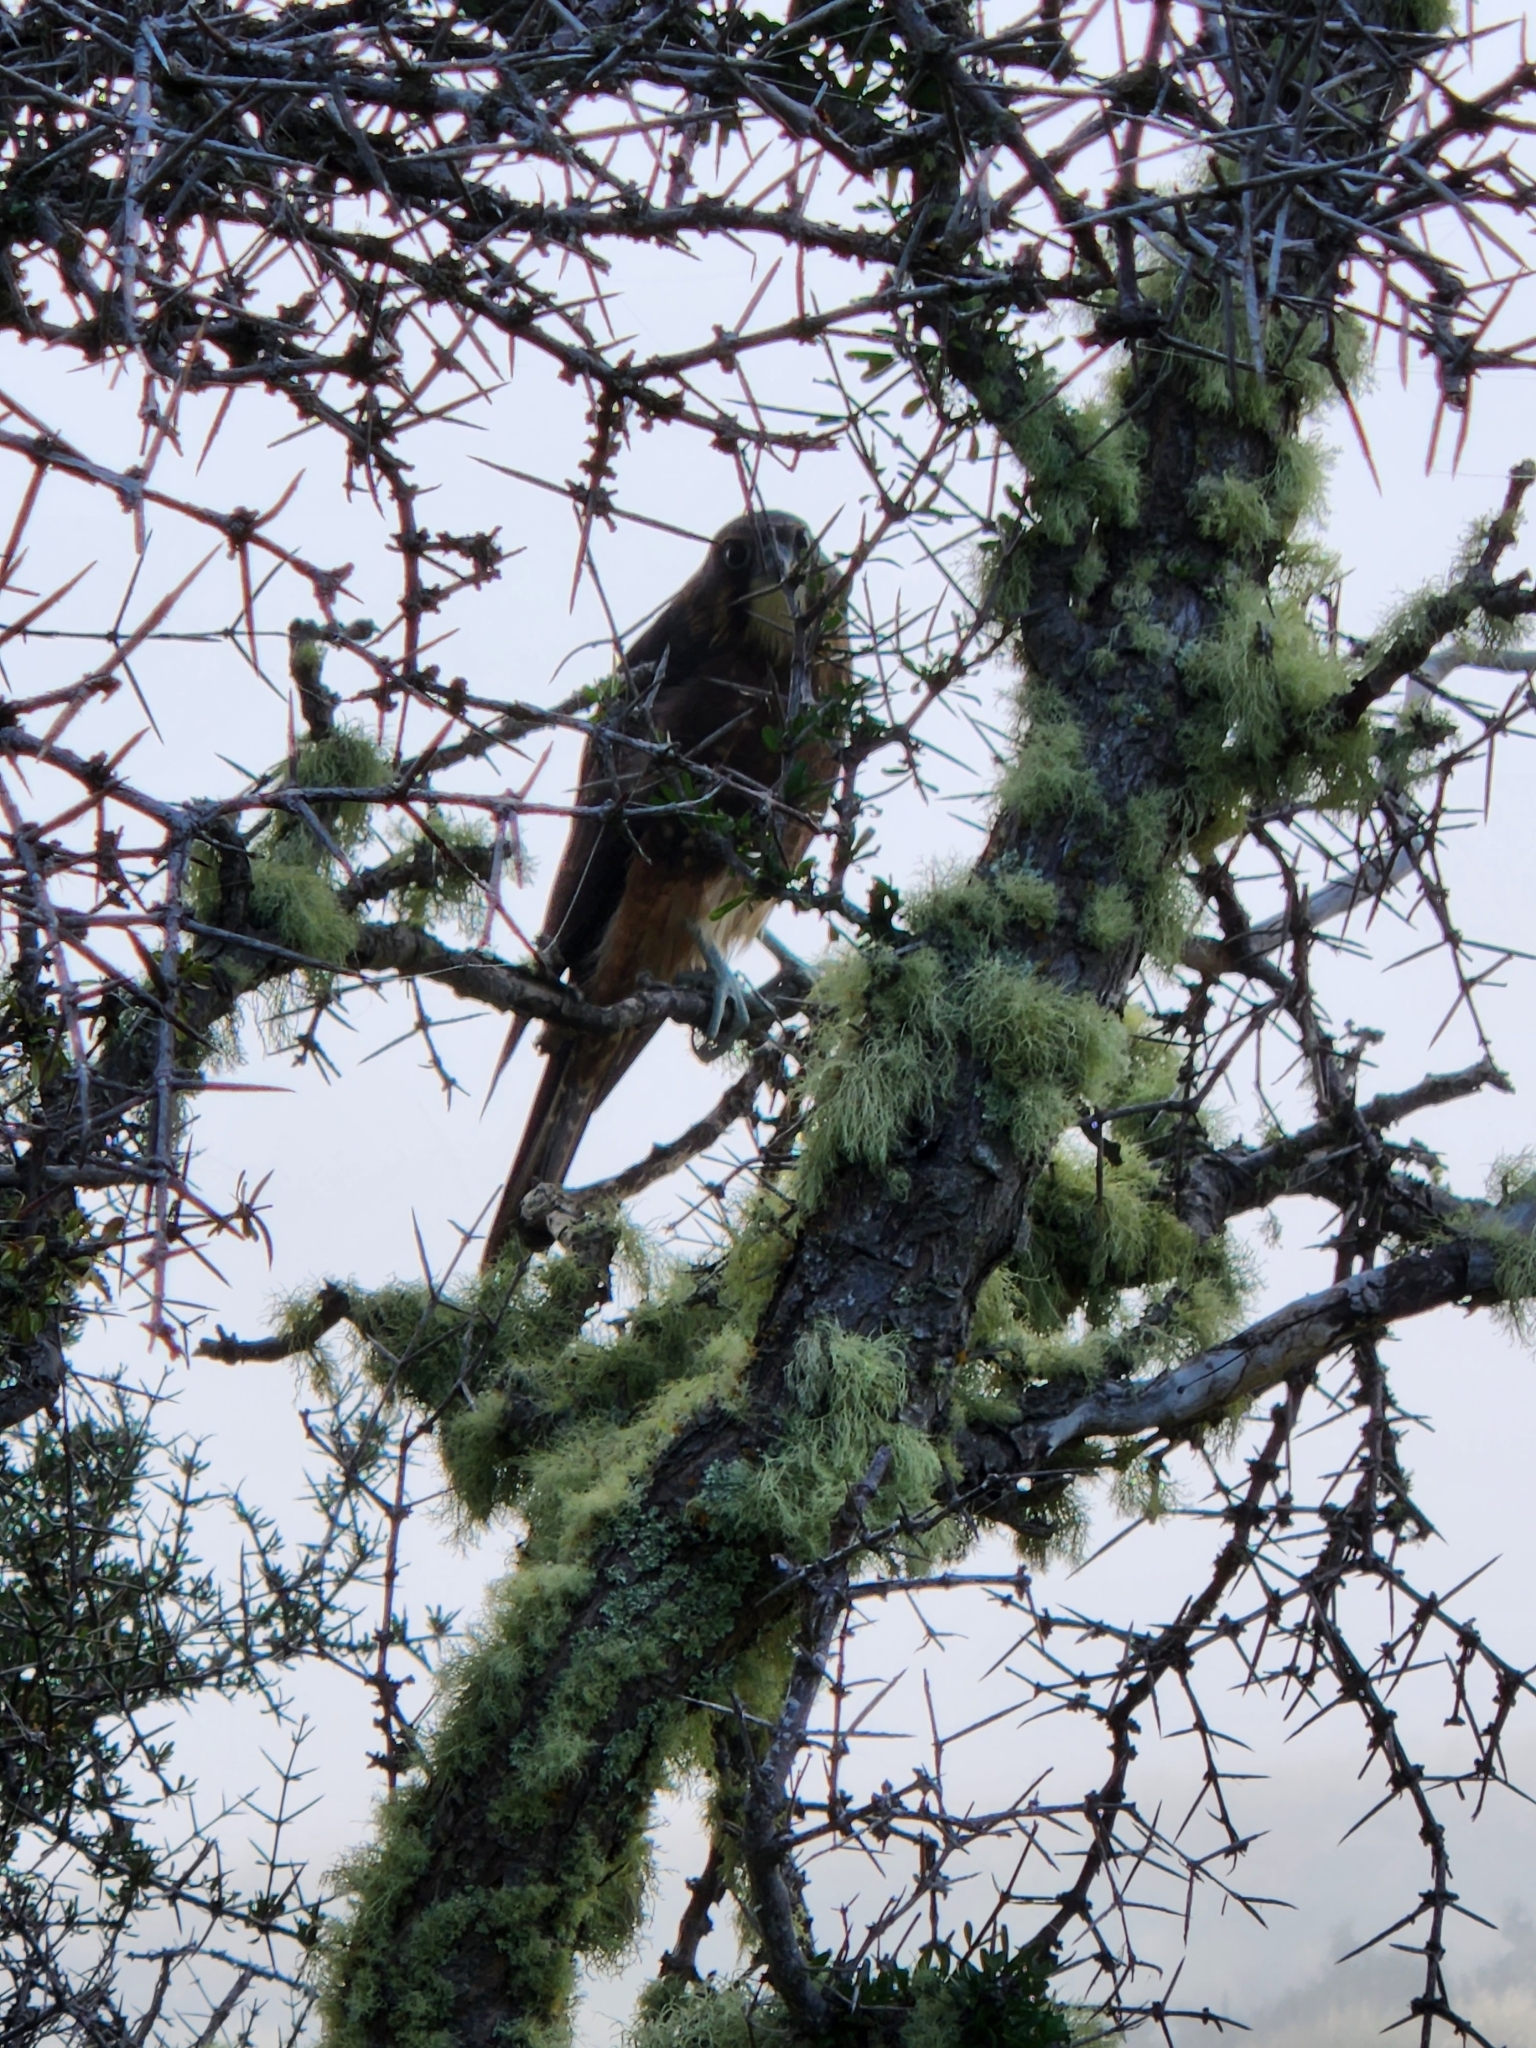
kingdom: Animalia
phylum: Chordata
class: Aves
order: Falconiformes
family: Falconidae
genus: Falco
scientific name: Falco novaeseelandiae
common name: New zealand falcon
